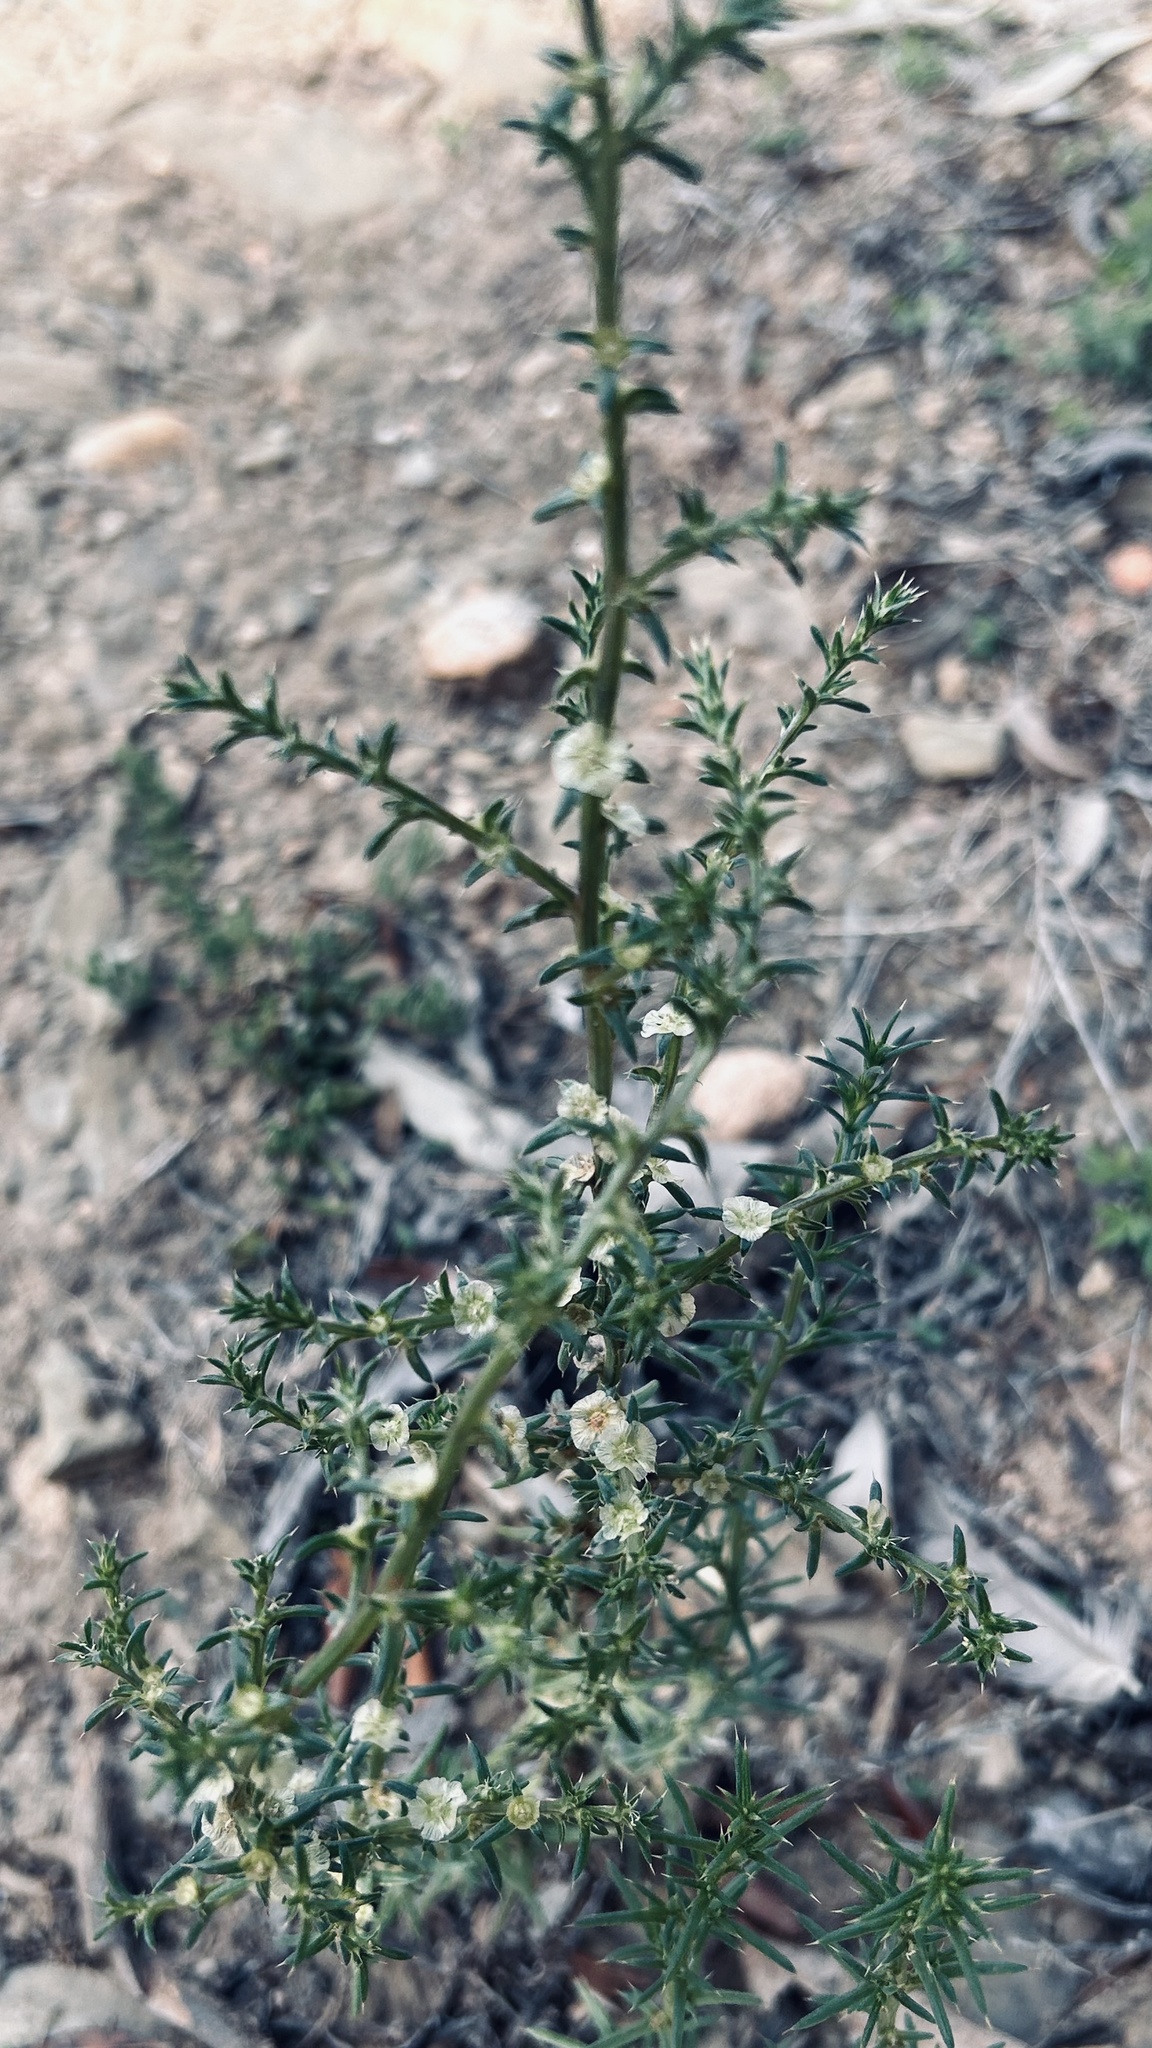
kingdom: Plantae
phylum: Tracheophyta
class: Magnoliopsida
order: Caryophyllales
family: Amaranthaceae
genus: Salsola
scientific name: Salsola kali
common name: Saltwort
